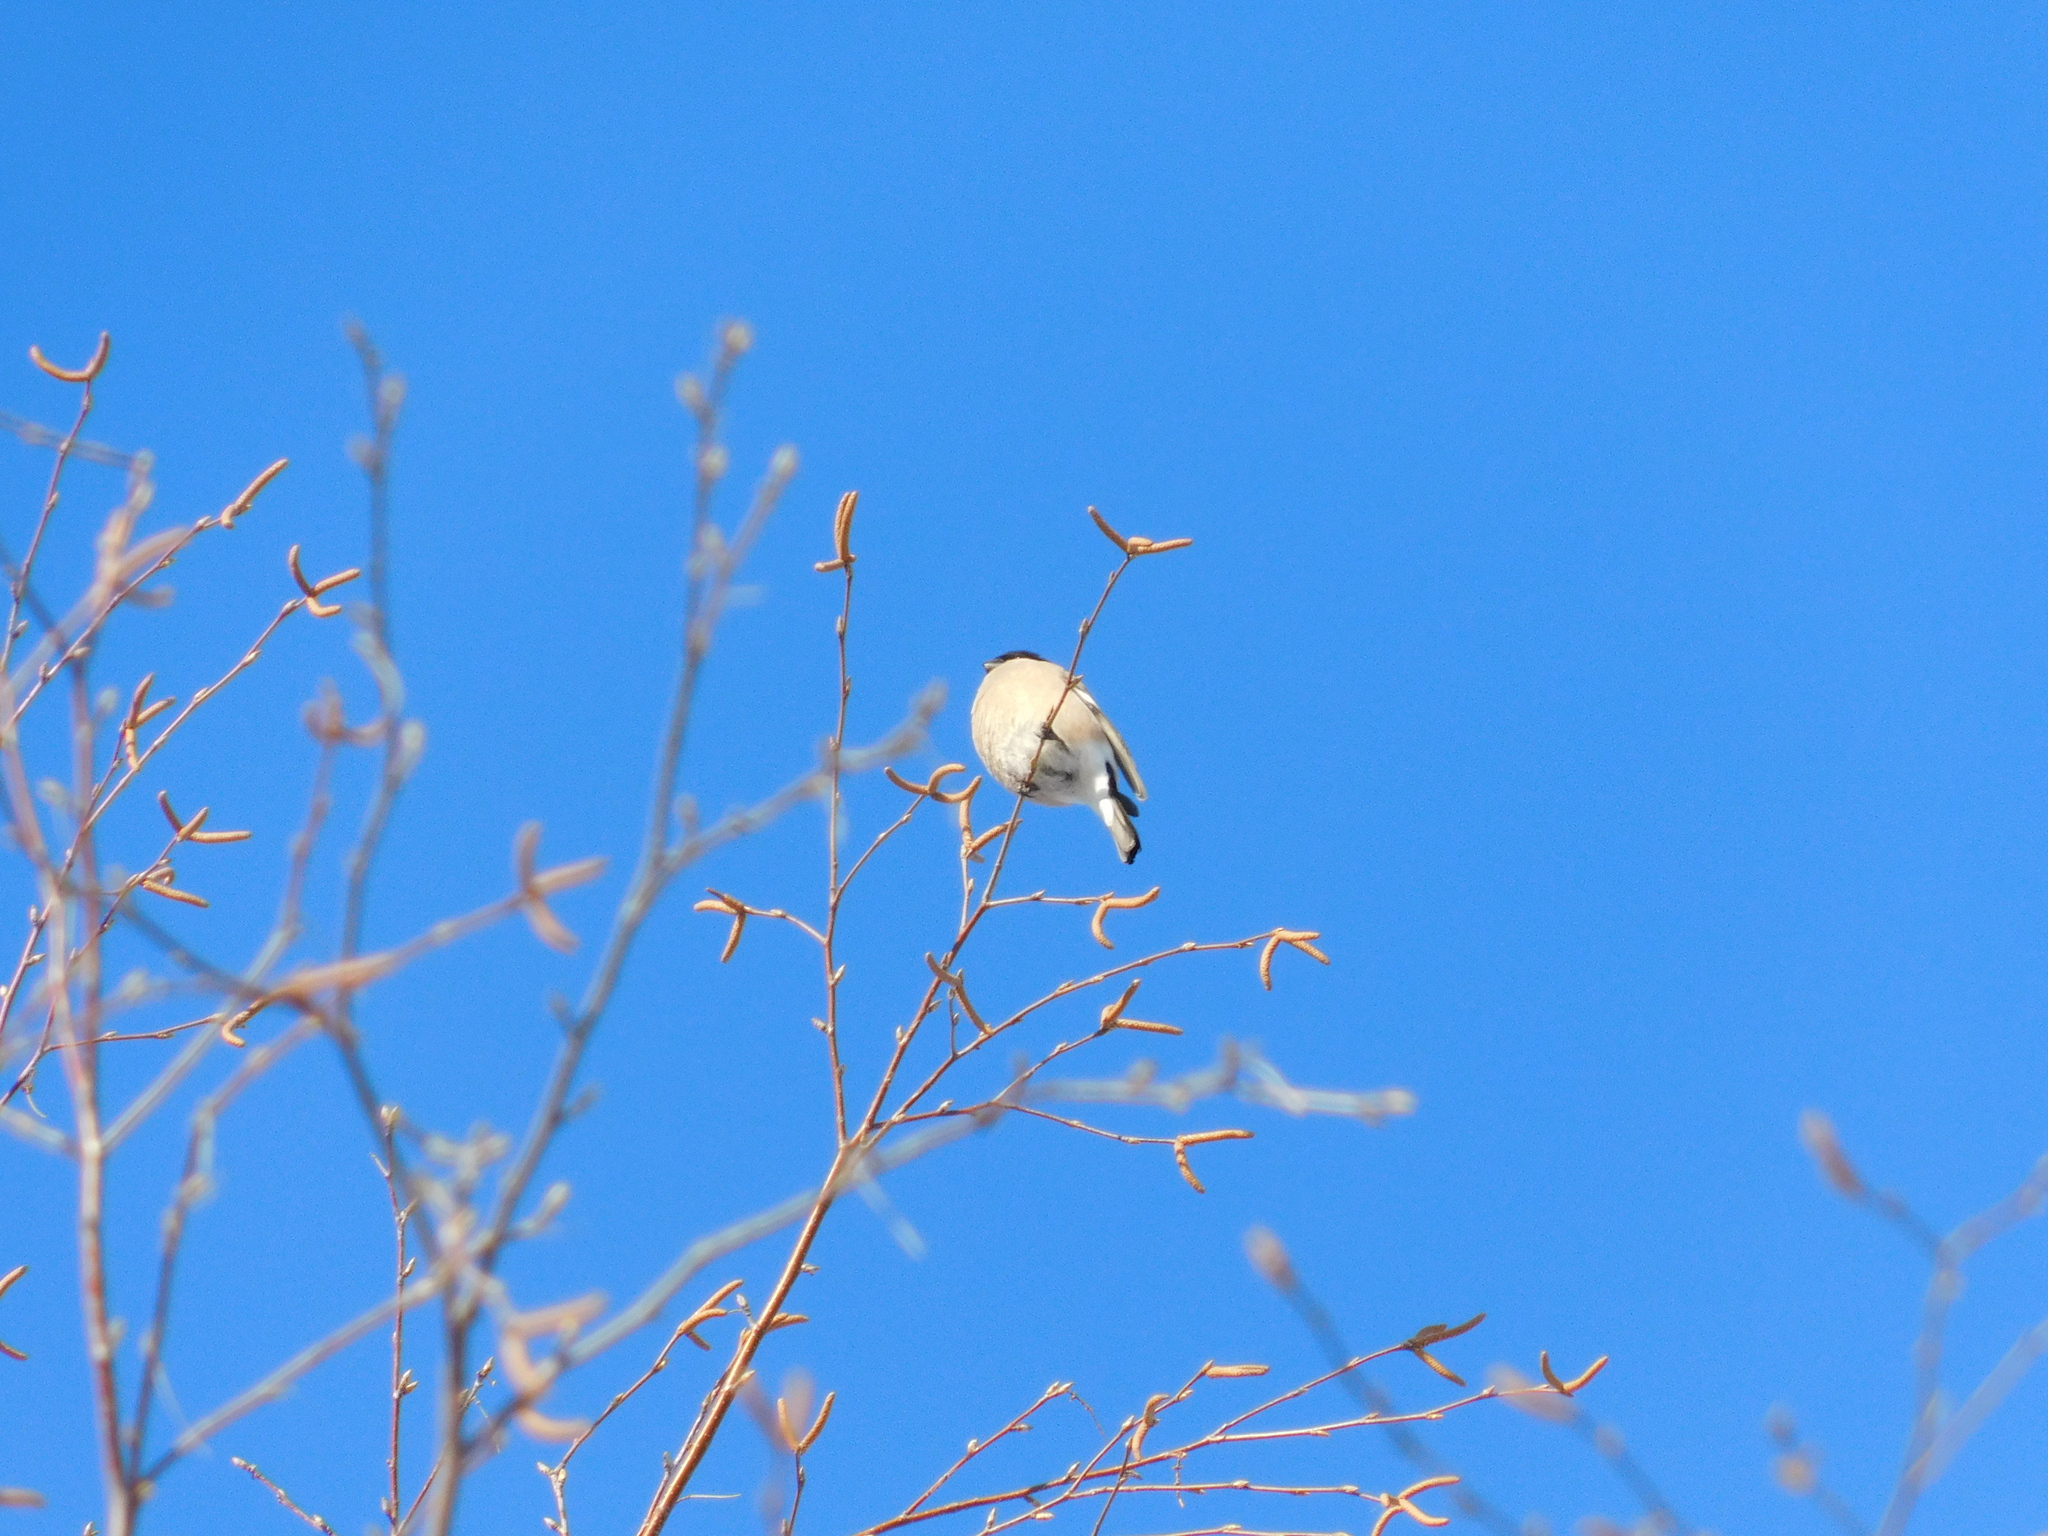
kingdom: Animalia
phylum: Chordata
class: Aves
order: Passeriformes
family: Fringillidae
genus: Pyrrhula
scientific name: Pyrrhula pyrrhula
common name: Eurasian bullfinch
